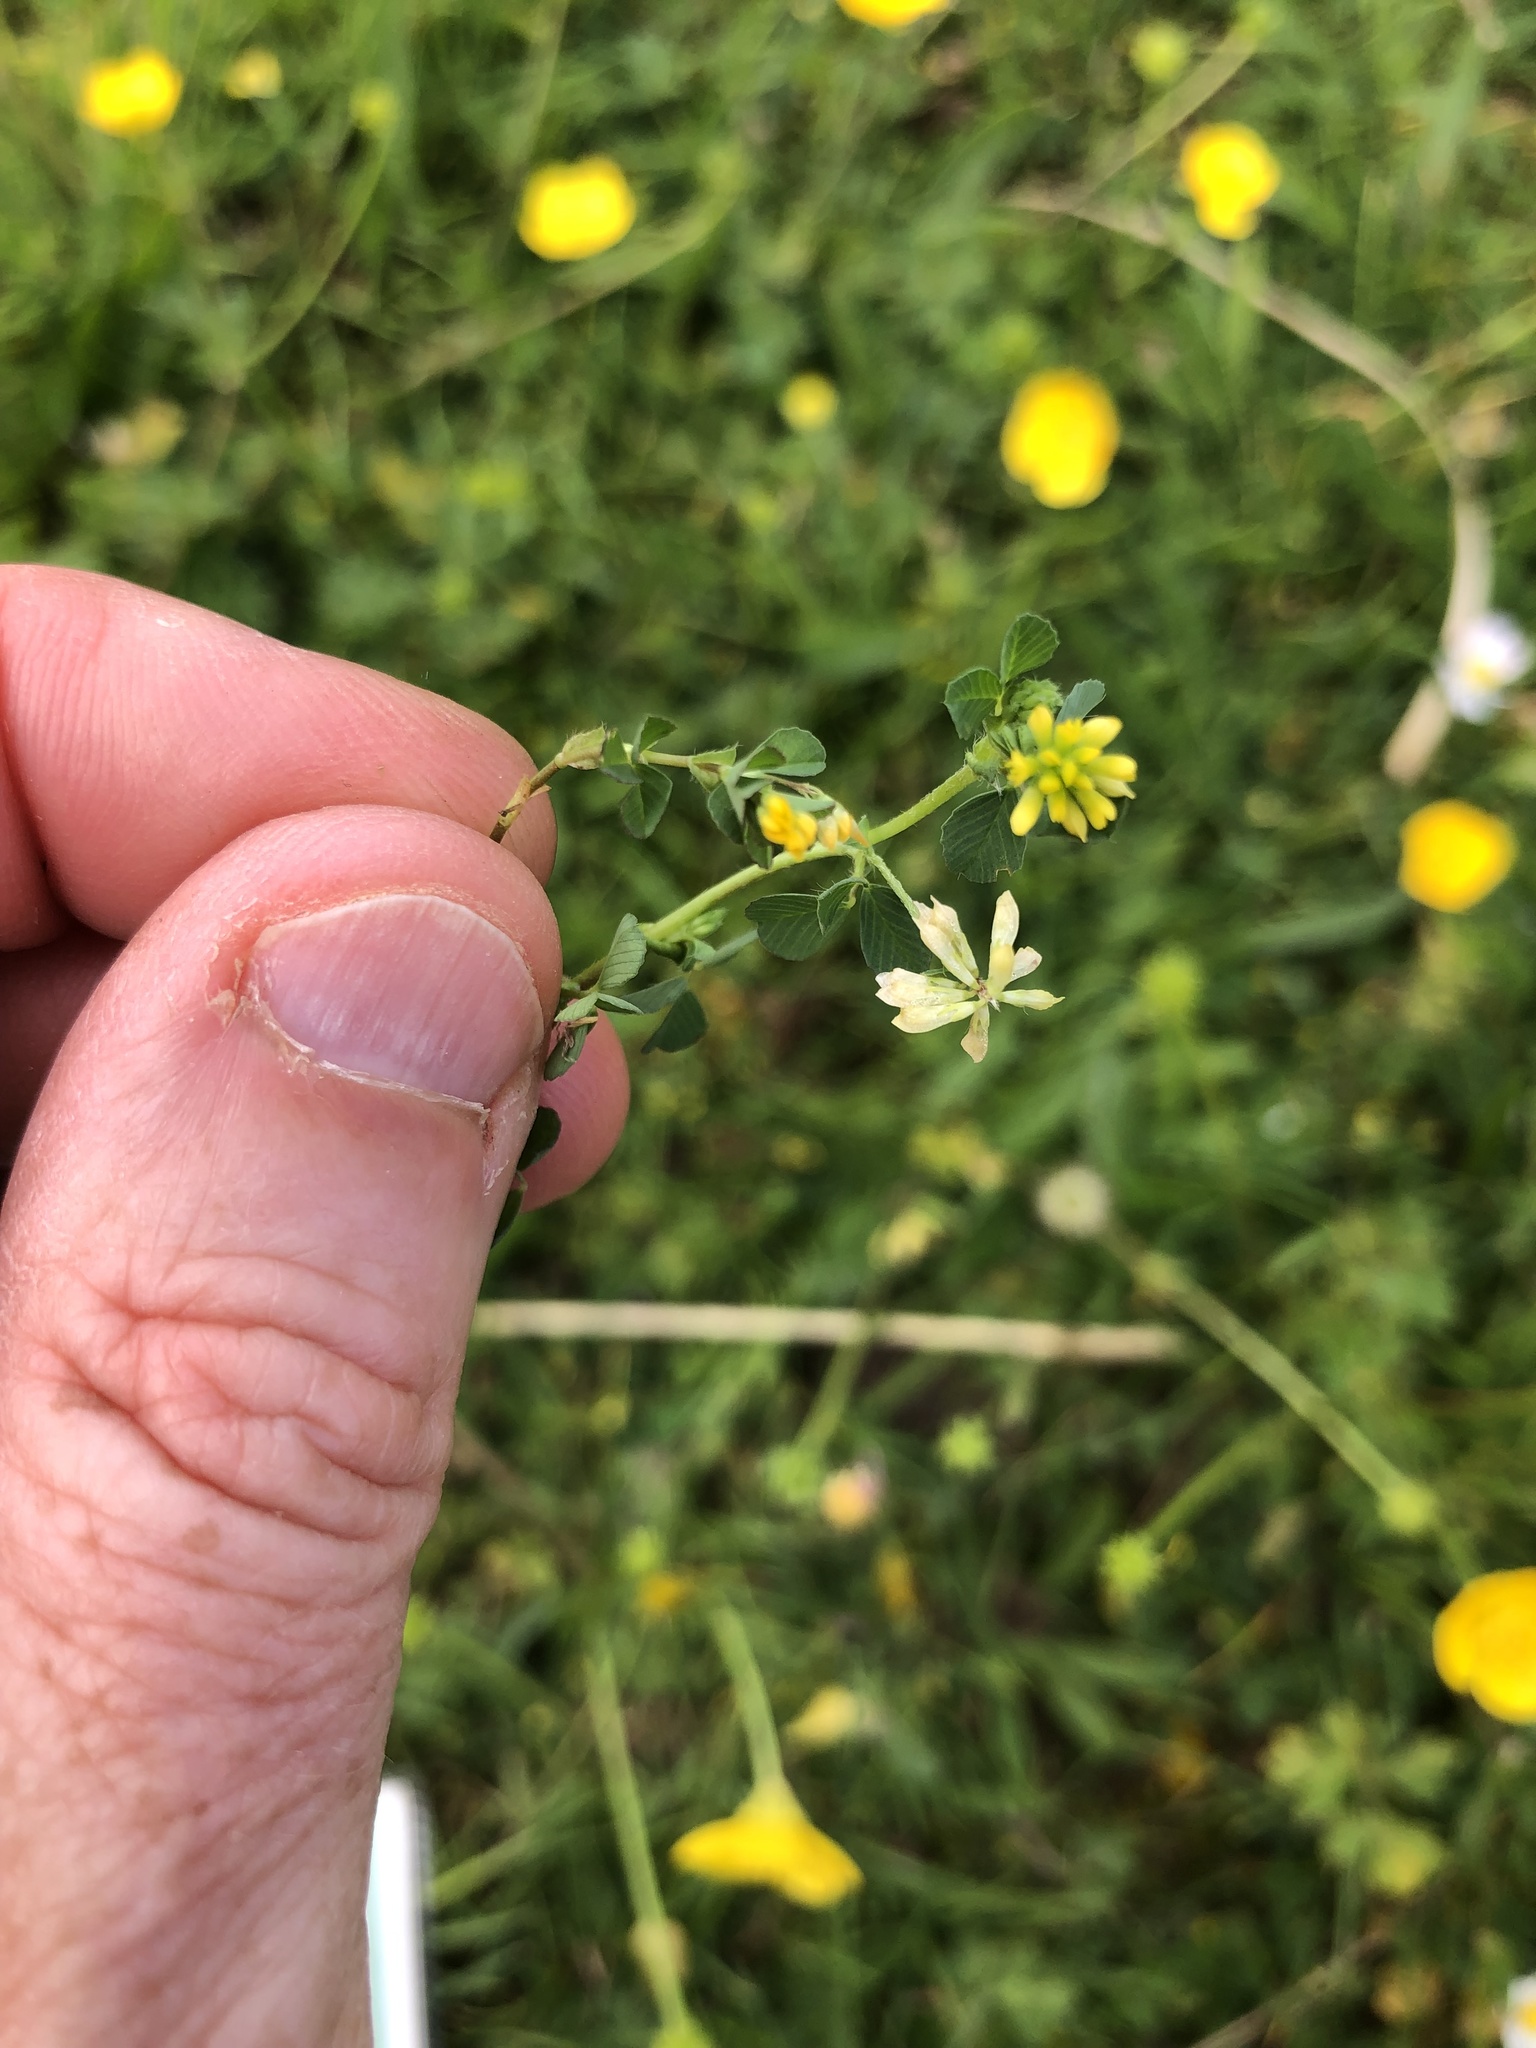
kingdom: Plantae
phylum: Tracheophyta
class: Magnoliopsida
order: Fabales
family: Fabaceae
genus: Trifolium
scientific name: Trifolium dubium
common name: Suckling clover
